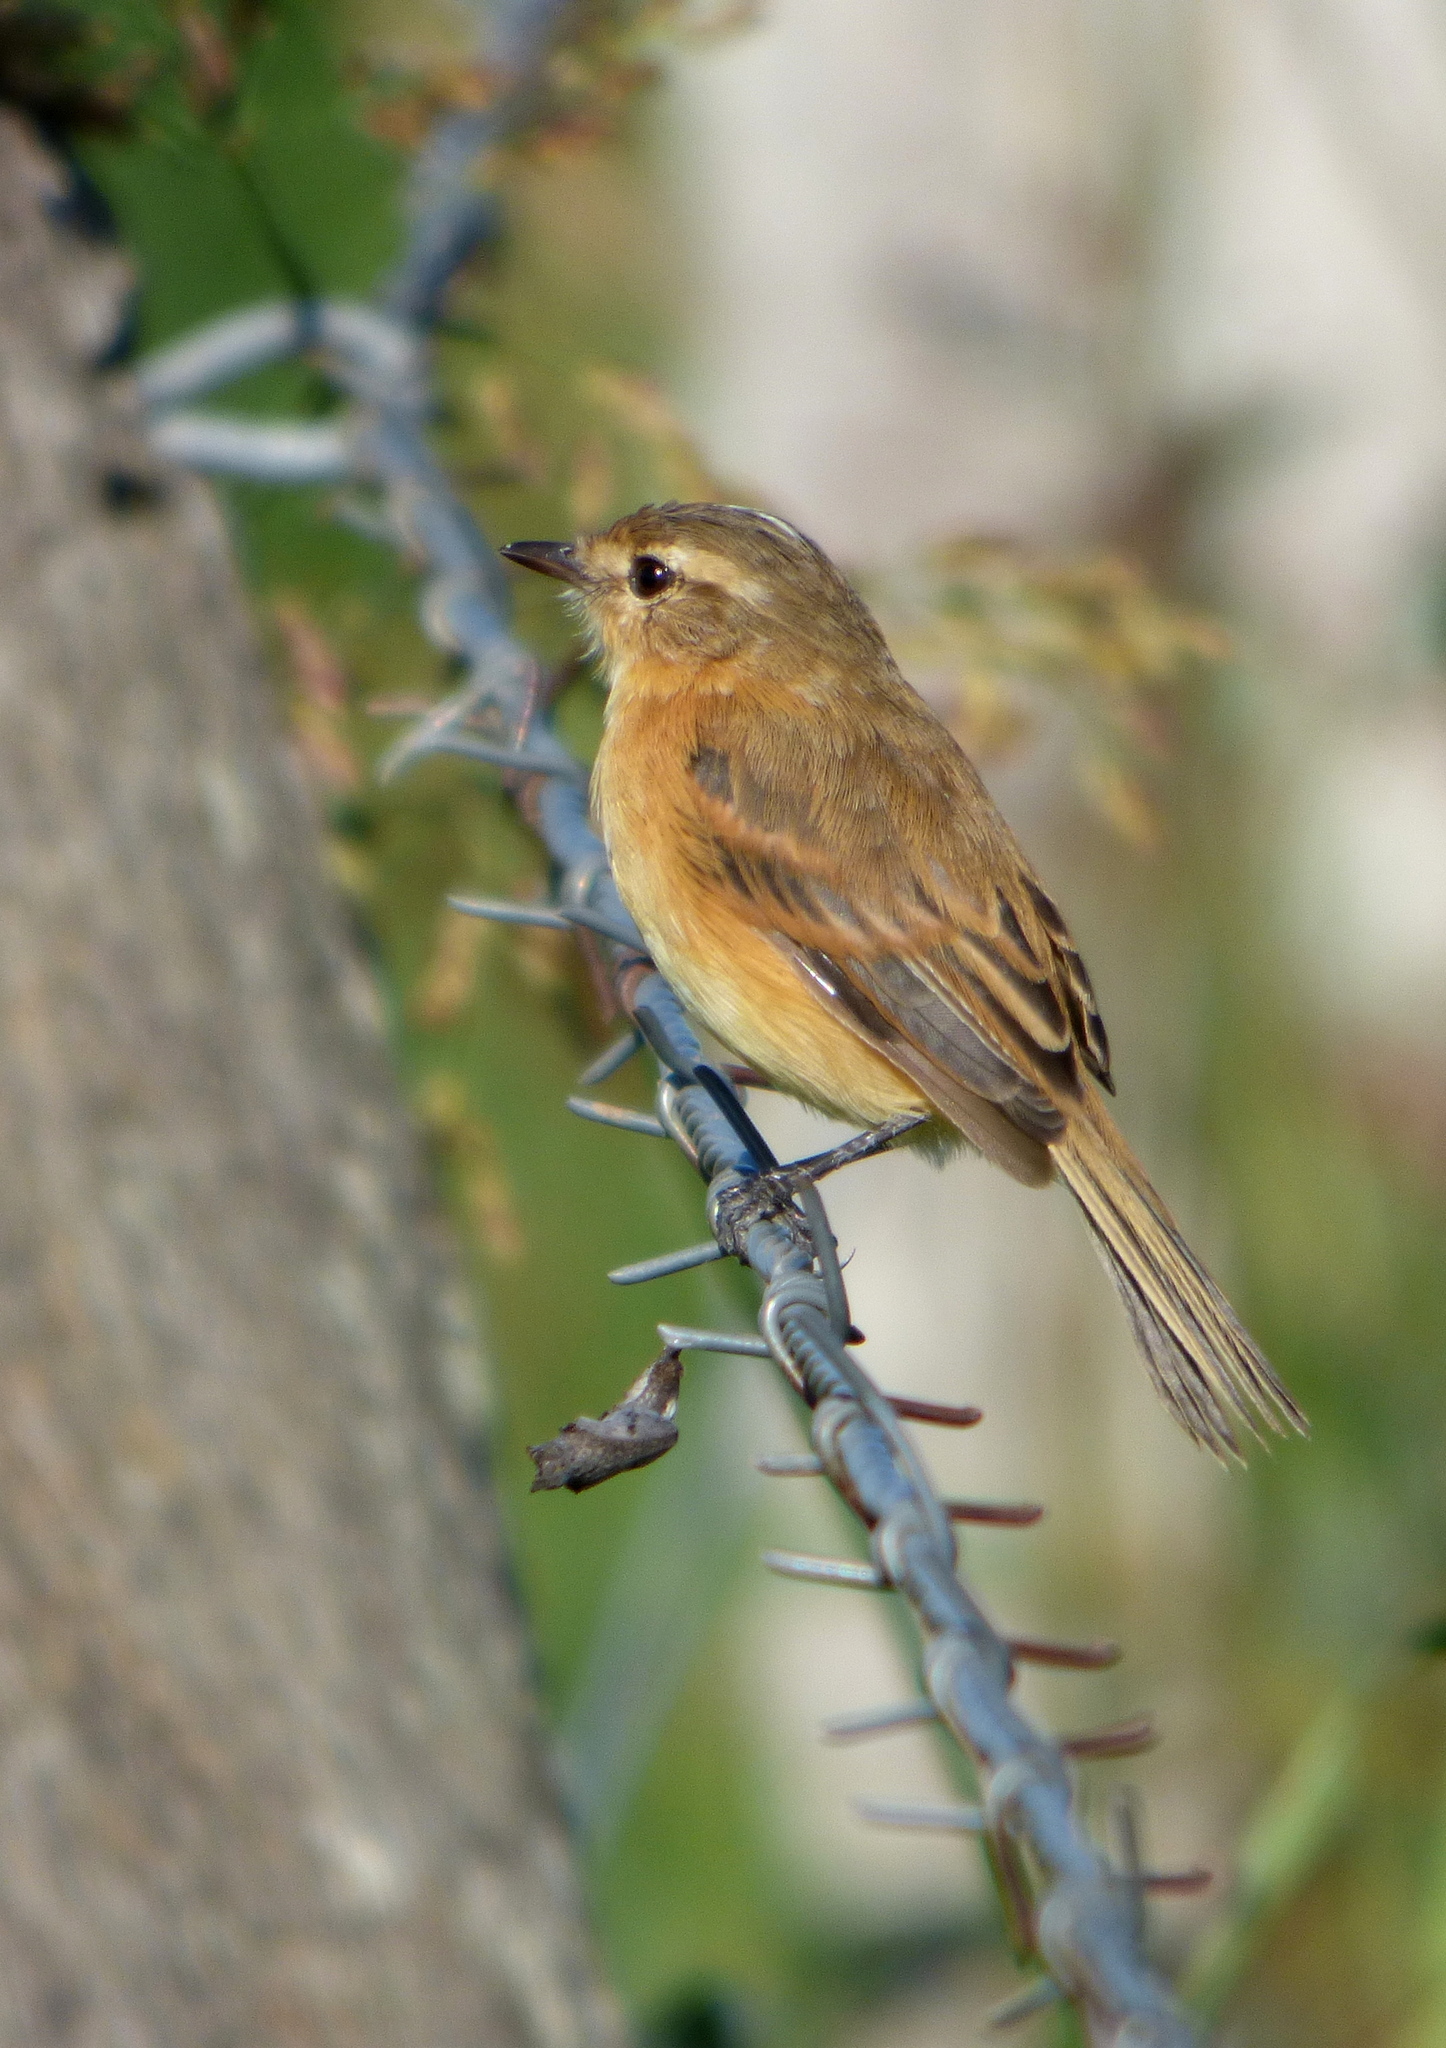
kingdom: Animalia
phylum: Chordata
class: Aves
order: Passeriformes
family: Tyrannidae
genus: Polystictus
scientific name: Polystictus pectoralis
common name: Bearded tachuri
